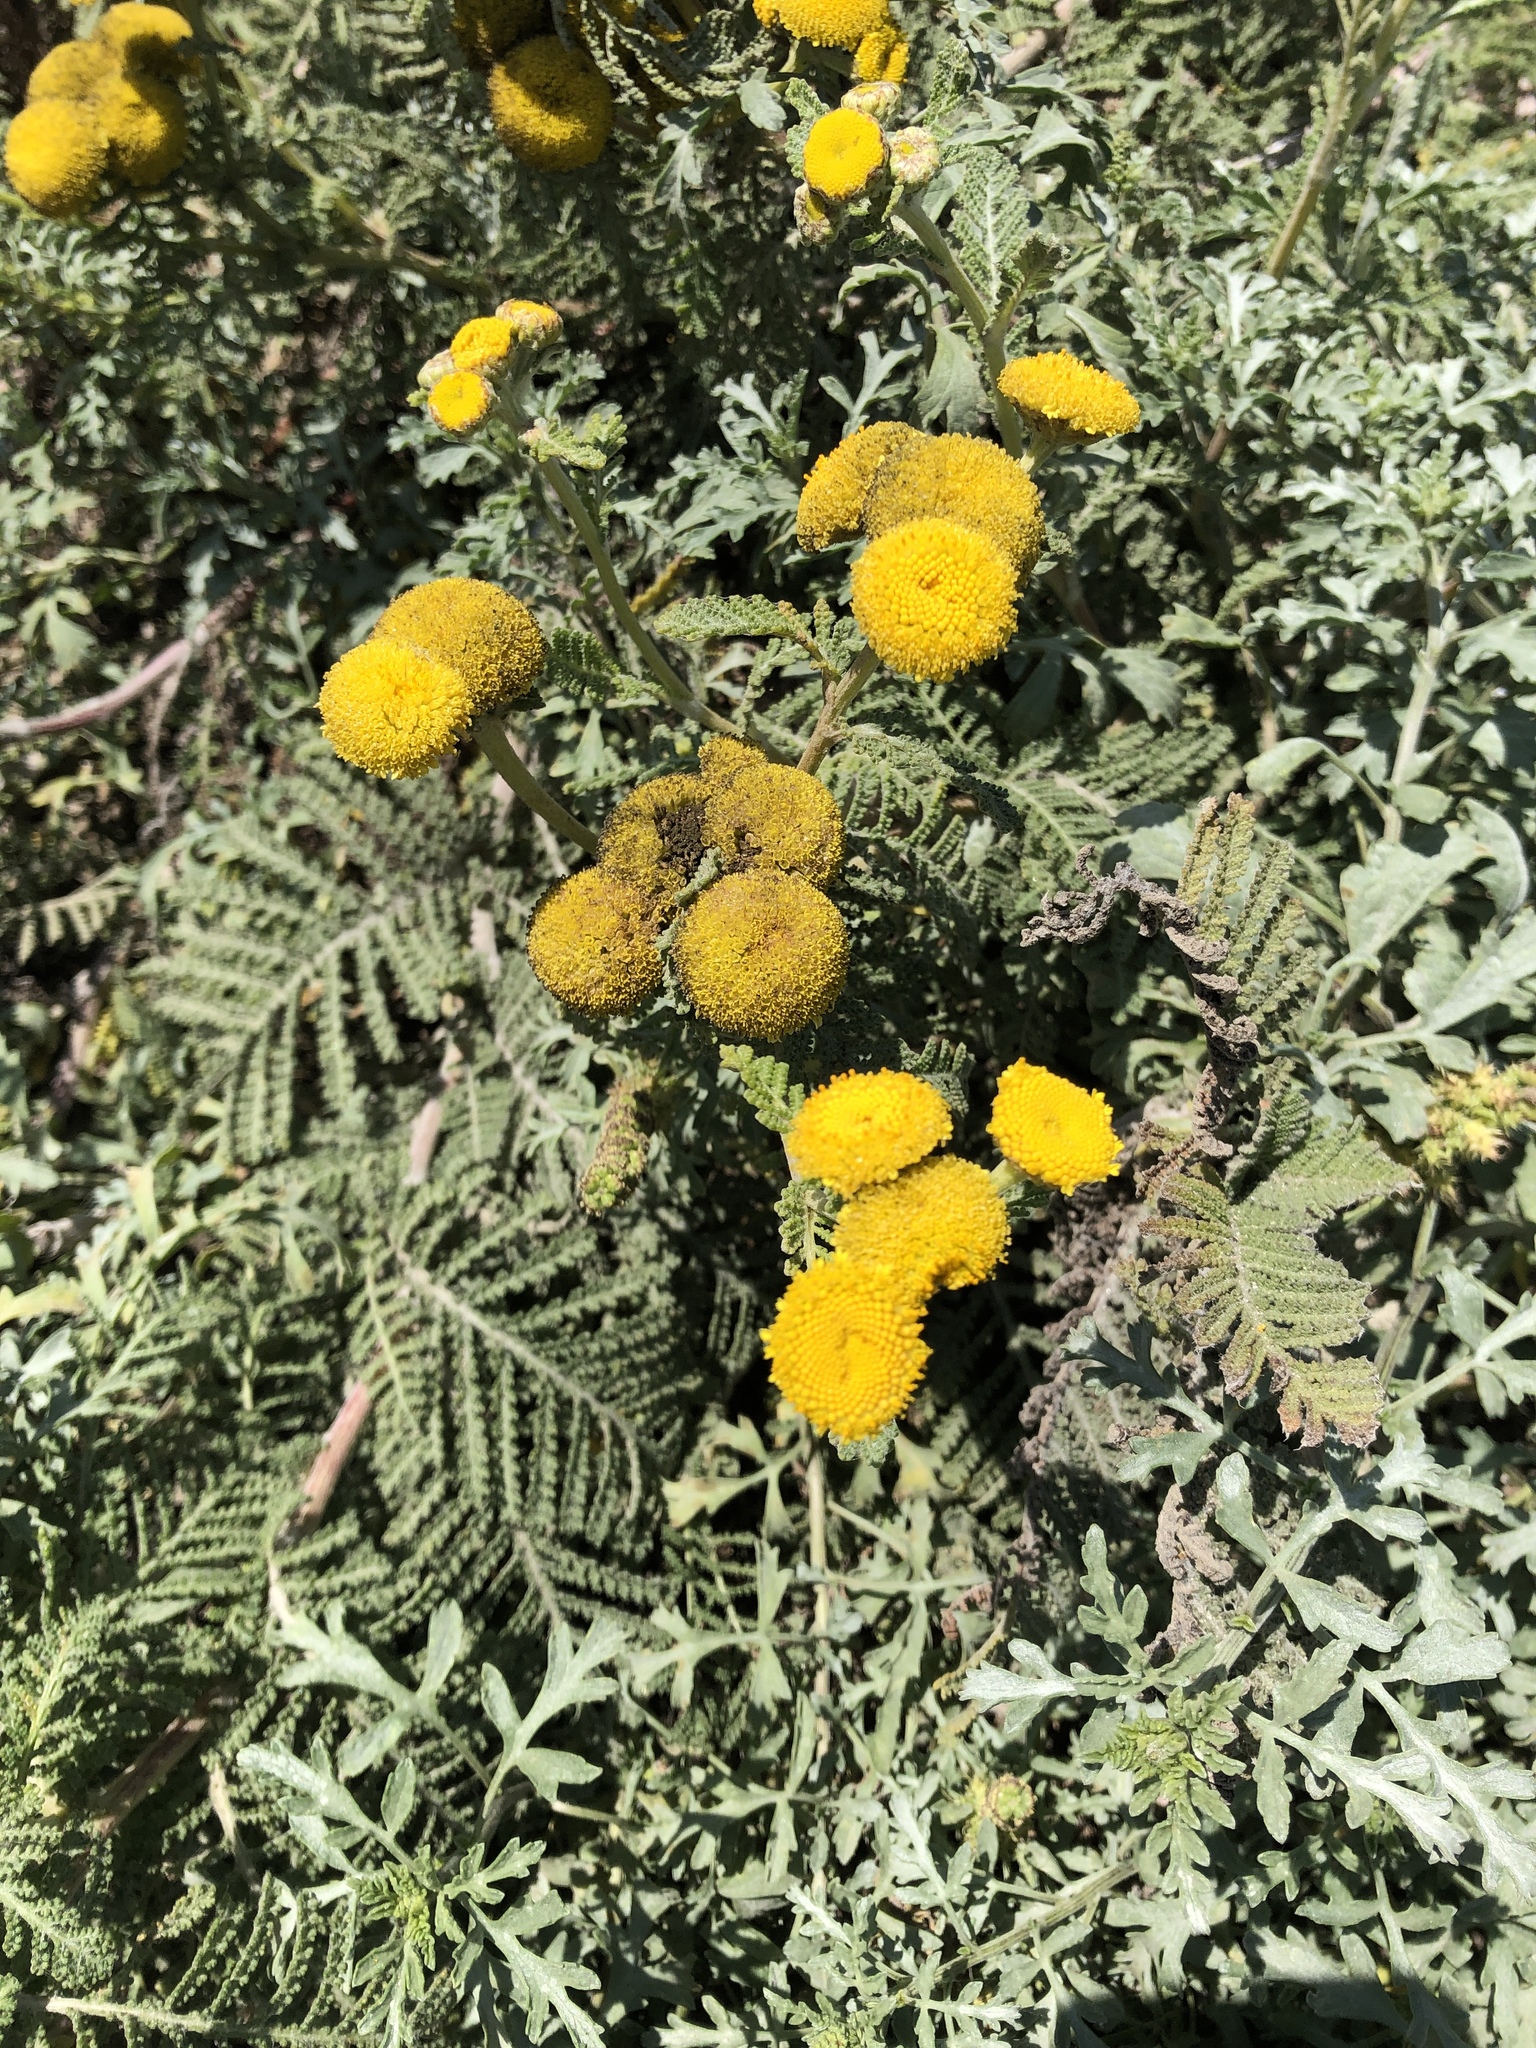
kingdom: Plantae
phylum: Tracheophyta
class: Magnoliopsida
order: Asterales
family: Asteraceae
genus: Tanacetum
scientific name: Tanacetum bipinnatum
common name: Dwarf tansy
